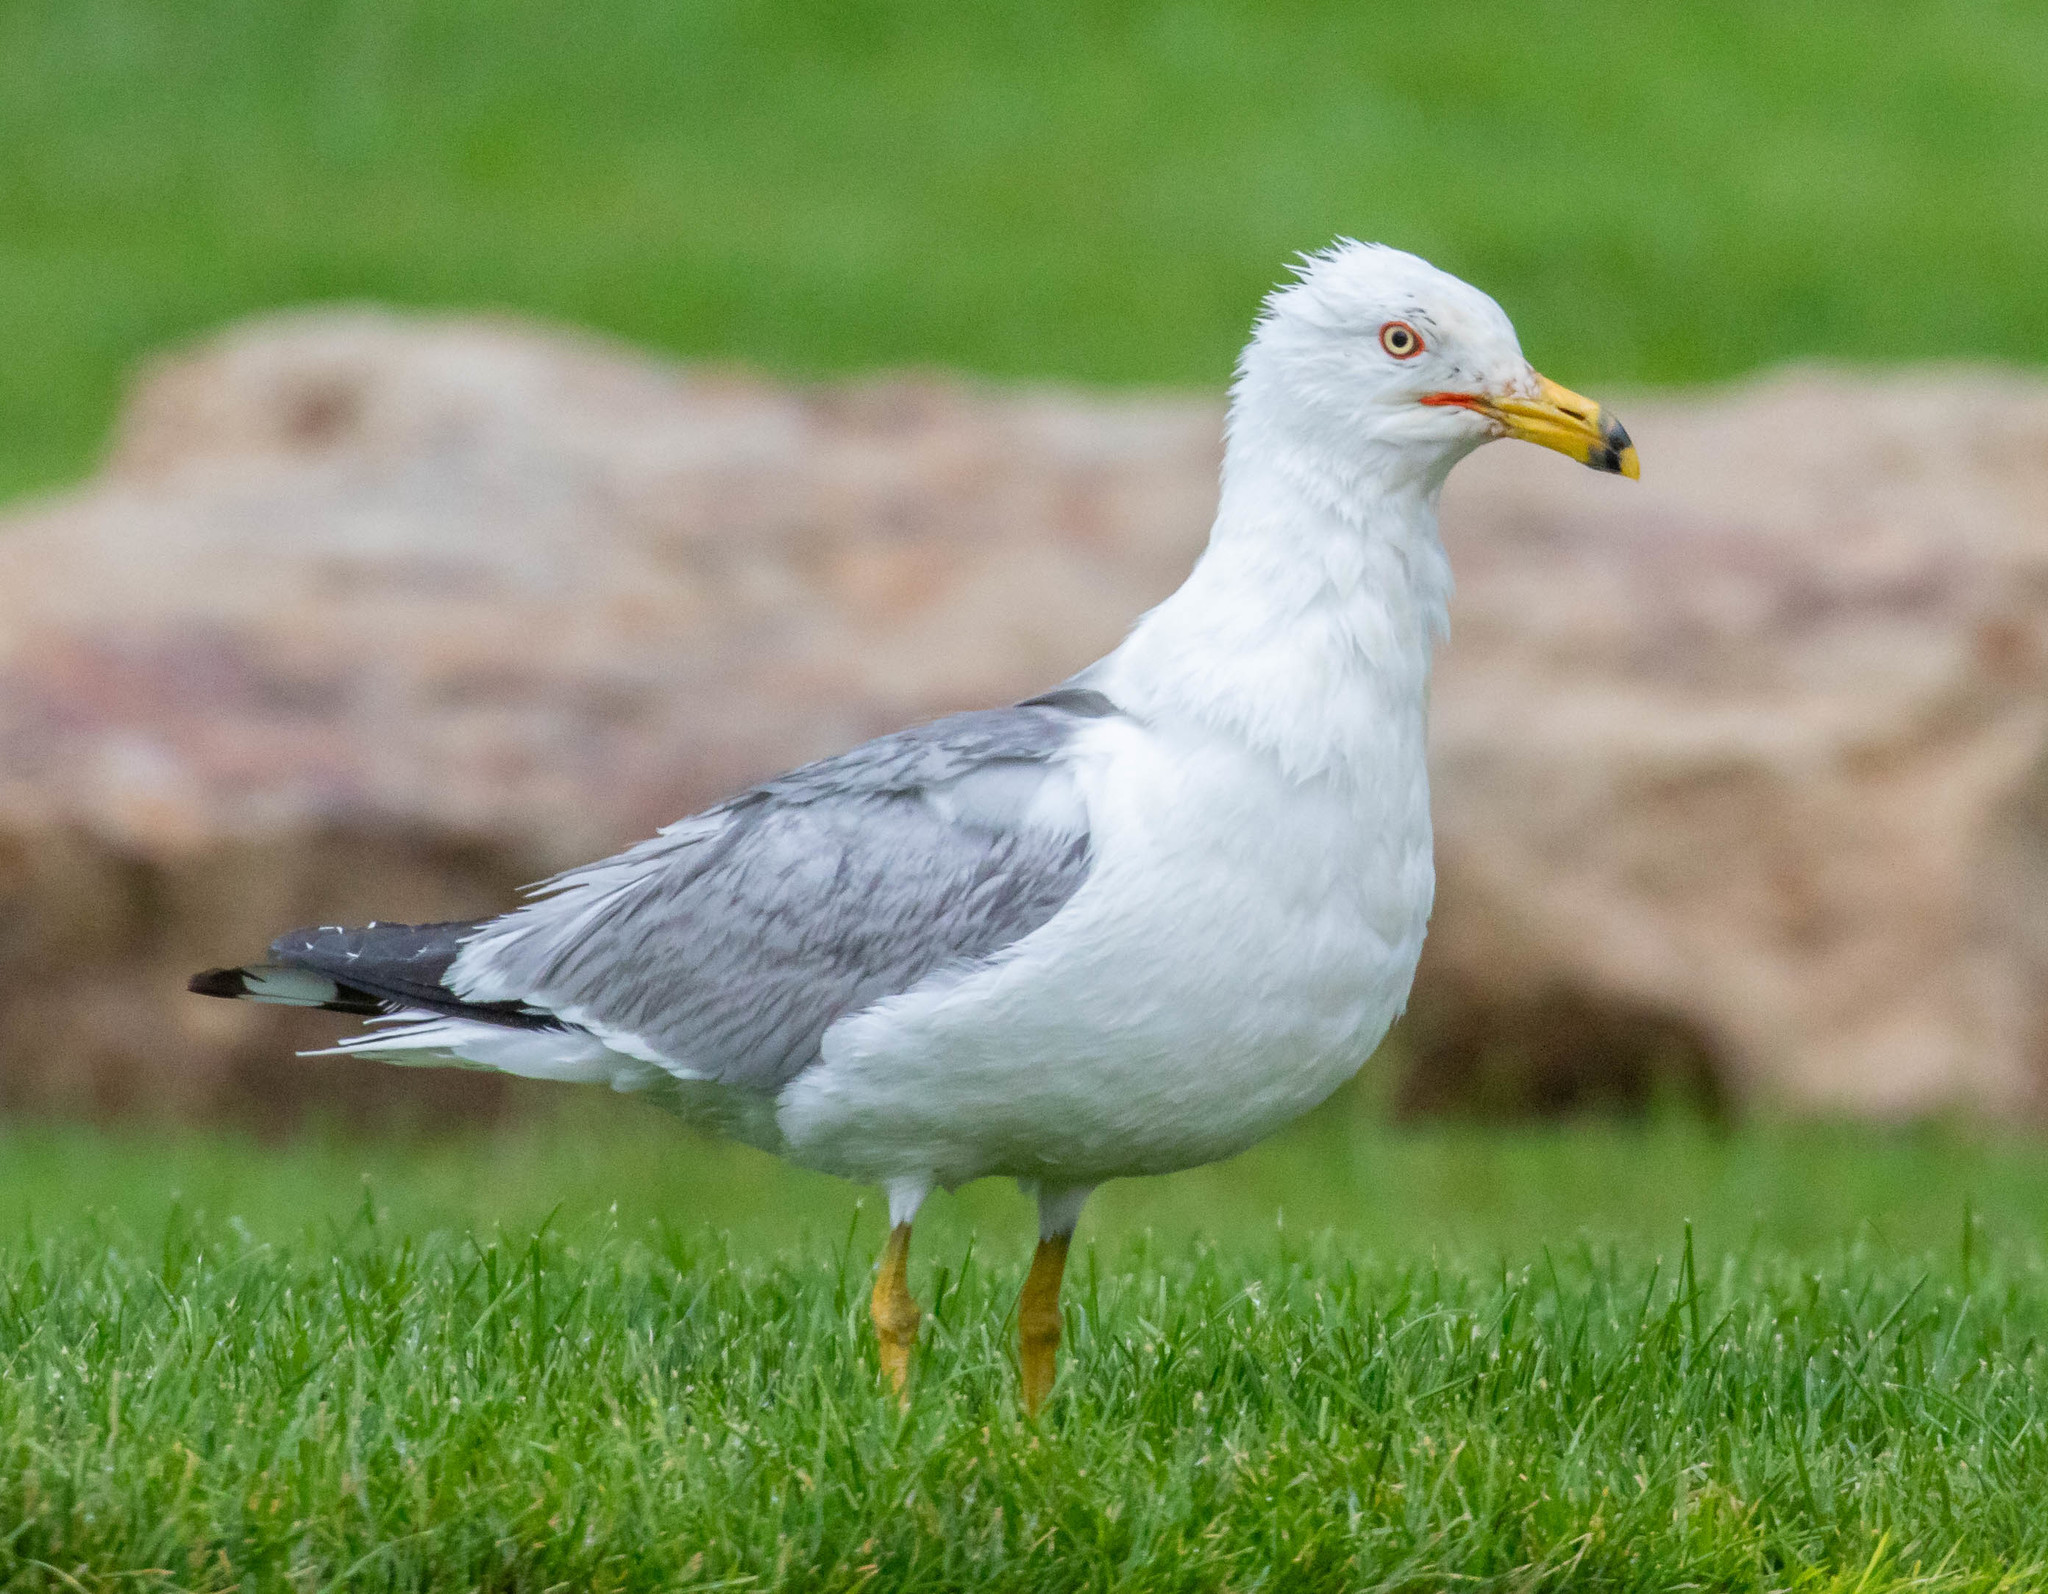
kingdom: Animalia
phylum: Chordata
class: Aves
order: Charadriiformes
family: Laridae
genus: Larus
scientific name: Larus delawarensis
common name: Ring-billed gull
